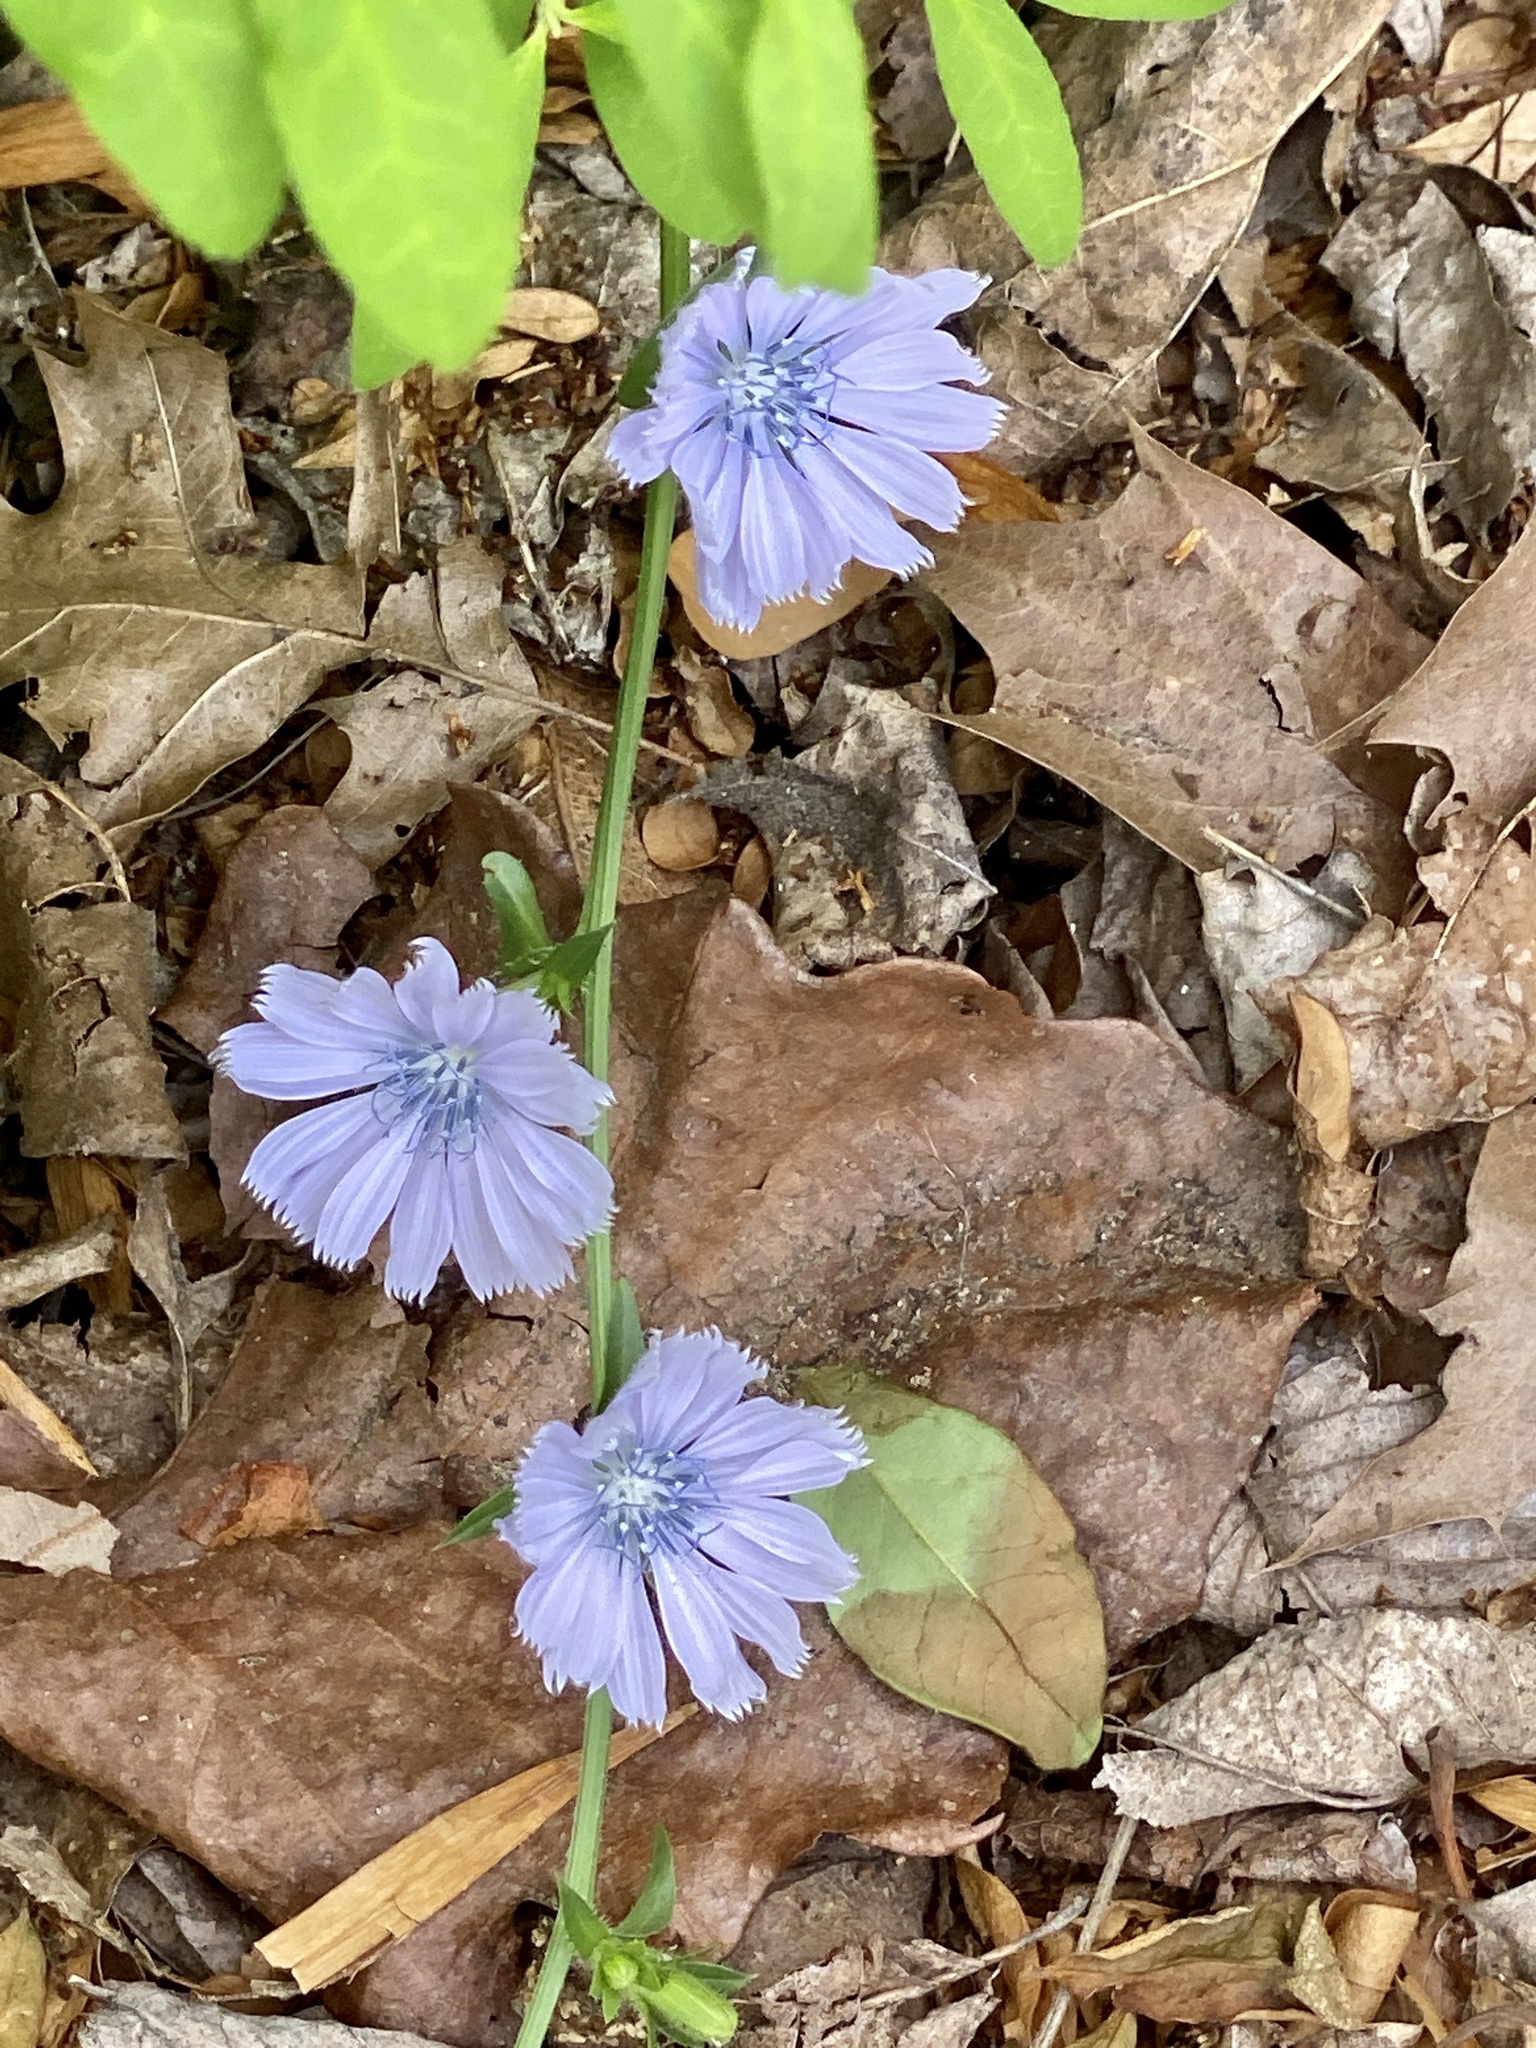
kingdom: Plantae
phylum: Tracheophyta
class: Magnoliopsida
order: Asterales
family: Asteraceae
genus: Cichorium
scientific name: Cichorium intybus
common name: Chicory
